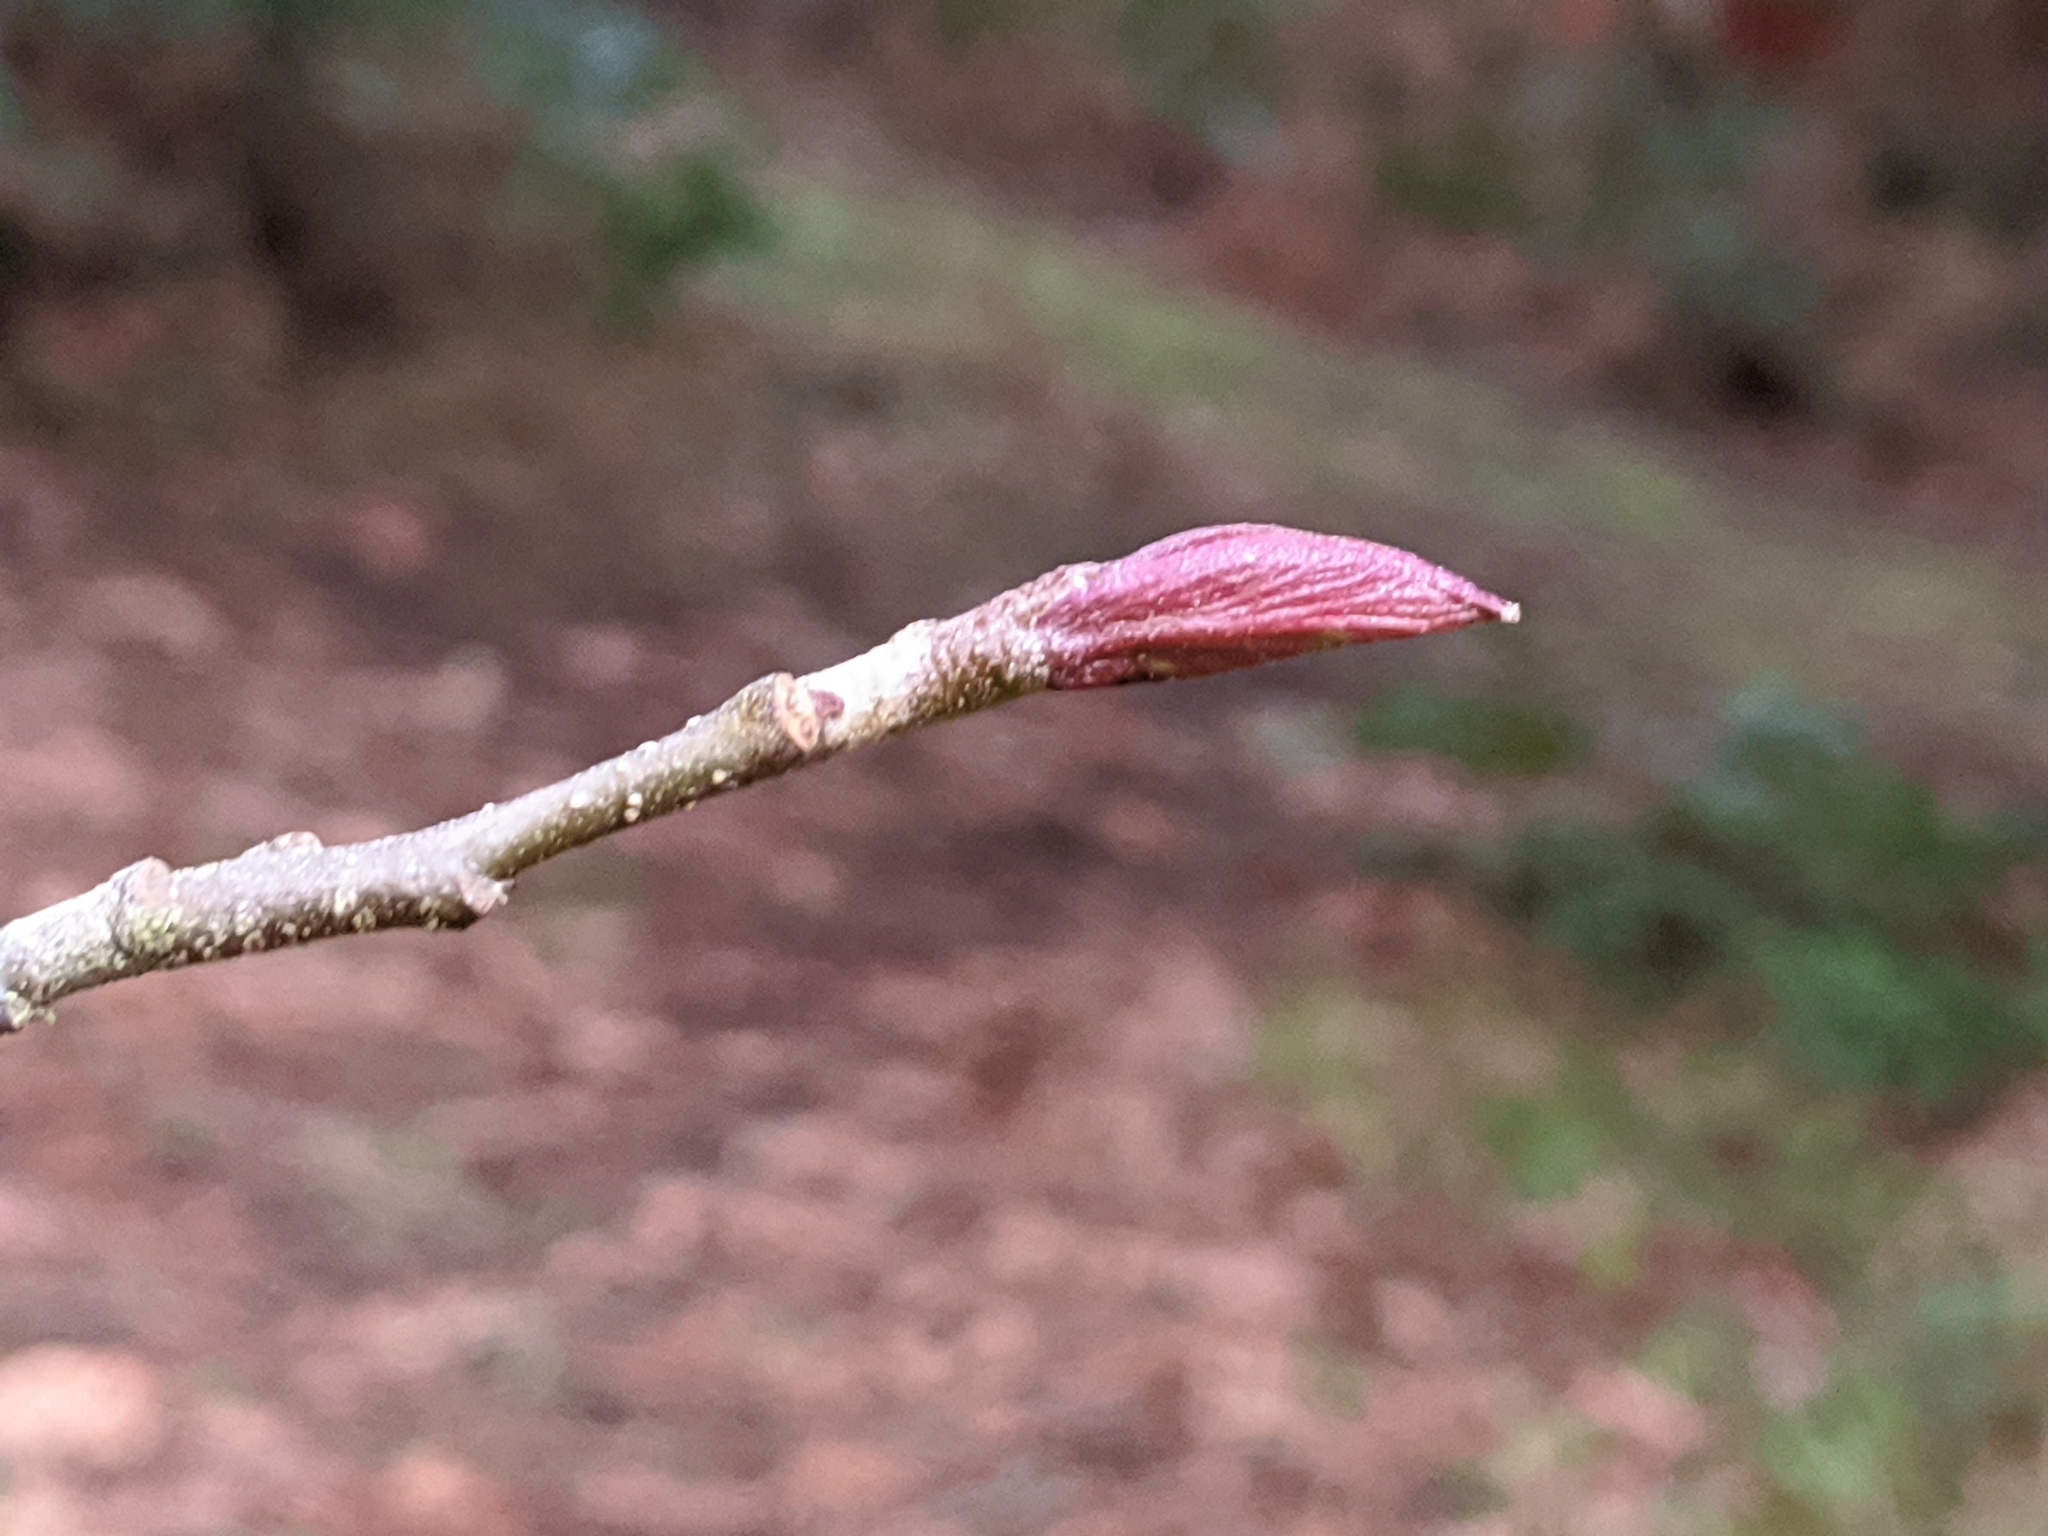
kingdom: Plantae
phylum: Tracheophyta
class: Magnoliopsida
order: Fagales
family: Betulaceae
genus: Alnus
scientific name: Alnus rubra
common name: Red alder
